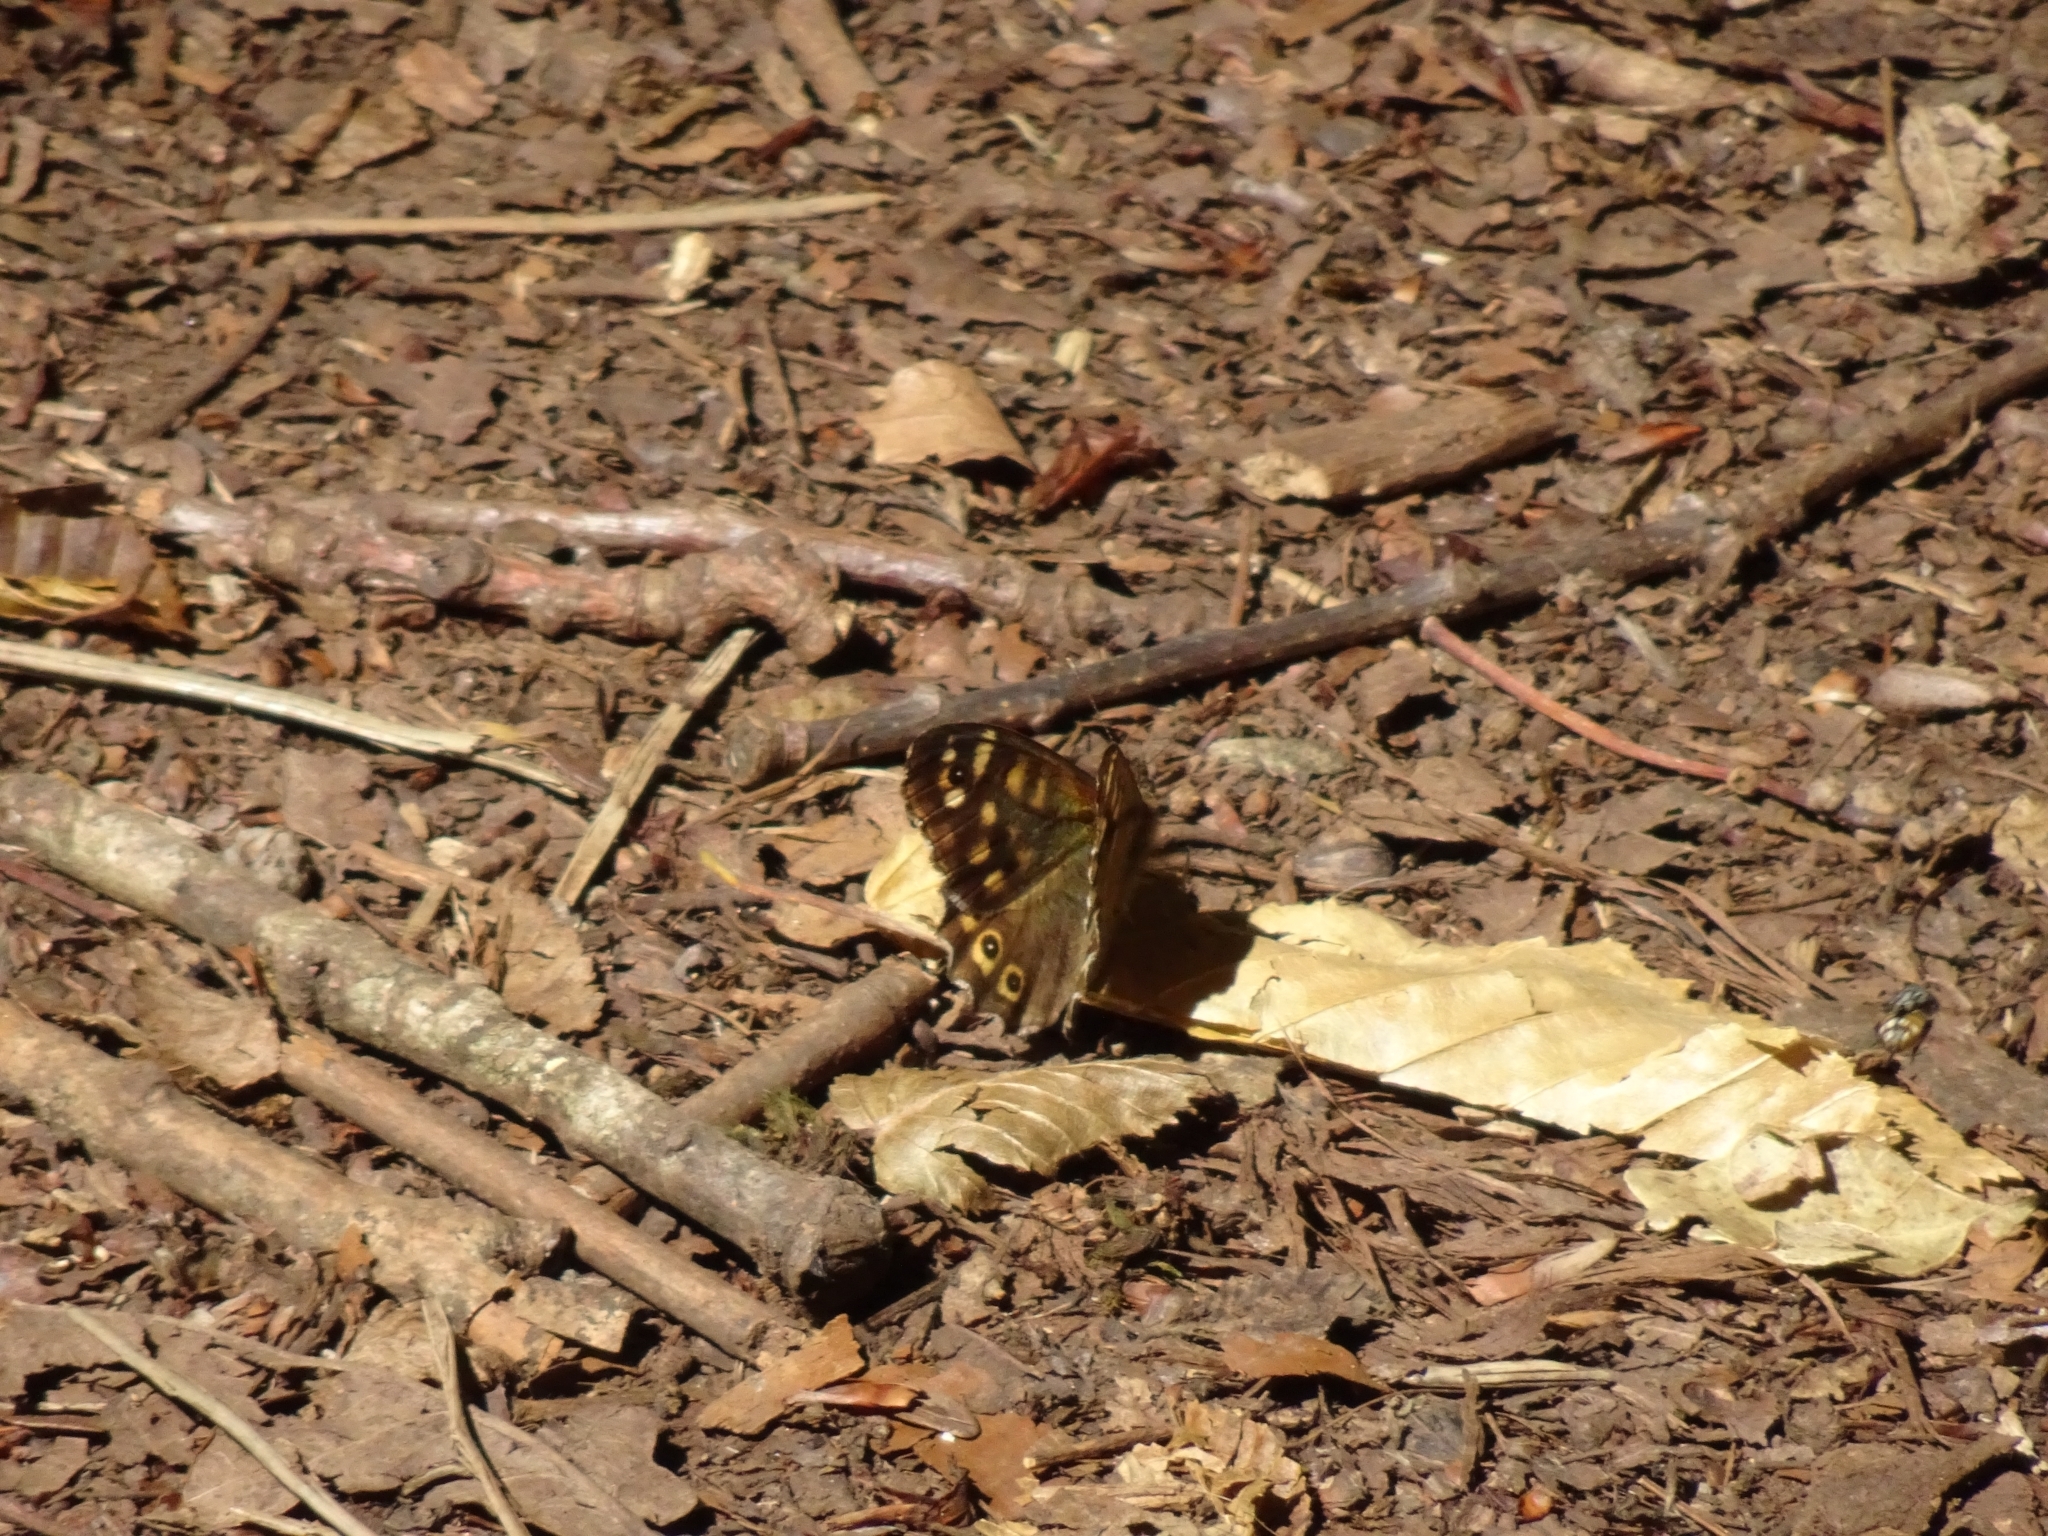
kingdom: Animalia
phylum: Arthropoda
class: Insecta
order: Lepidoptera
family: Nymphalidae
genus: Pararge
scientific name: Pararge aegeria
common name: Speckled wood
